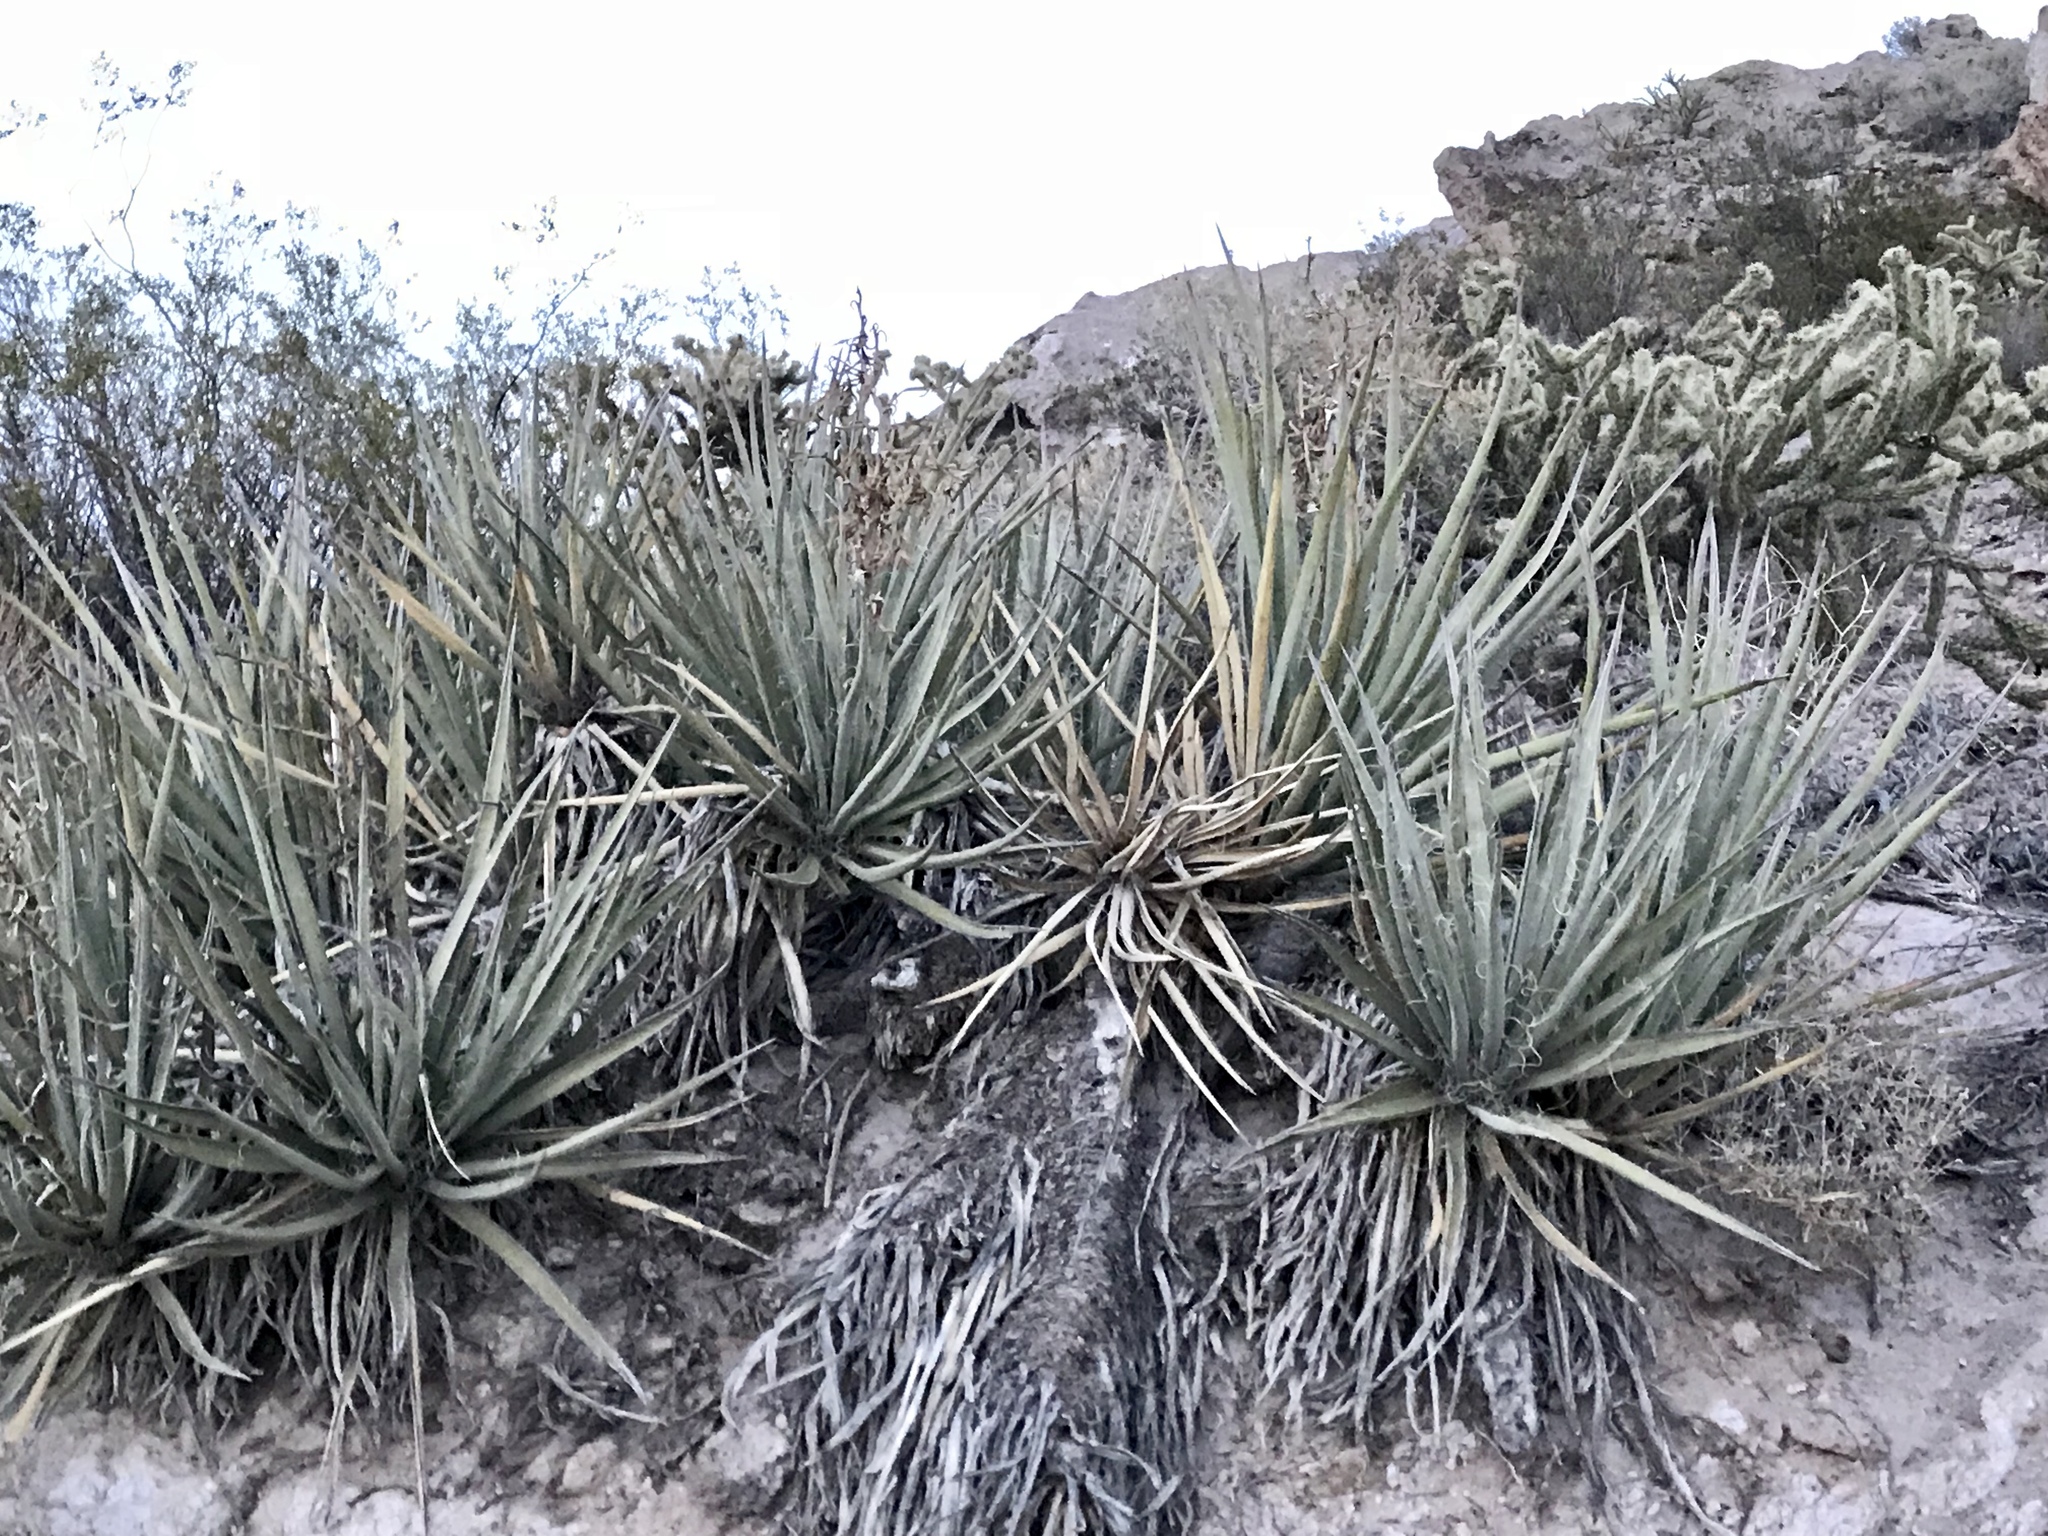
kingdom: Plantae
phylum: Tracheophyta
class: Liliopsida
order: Asparagales
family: Asparagaceae
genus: Yucca
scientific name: Yucca baccata
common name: Banana yucca
